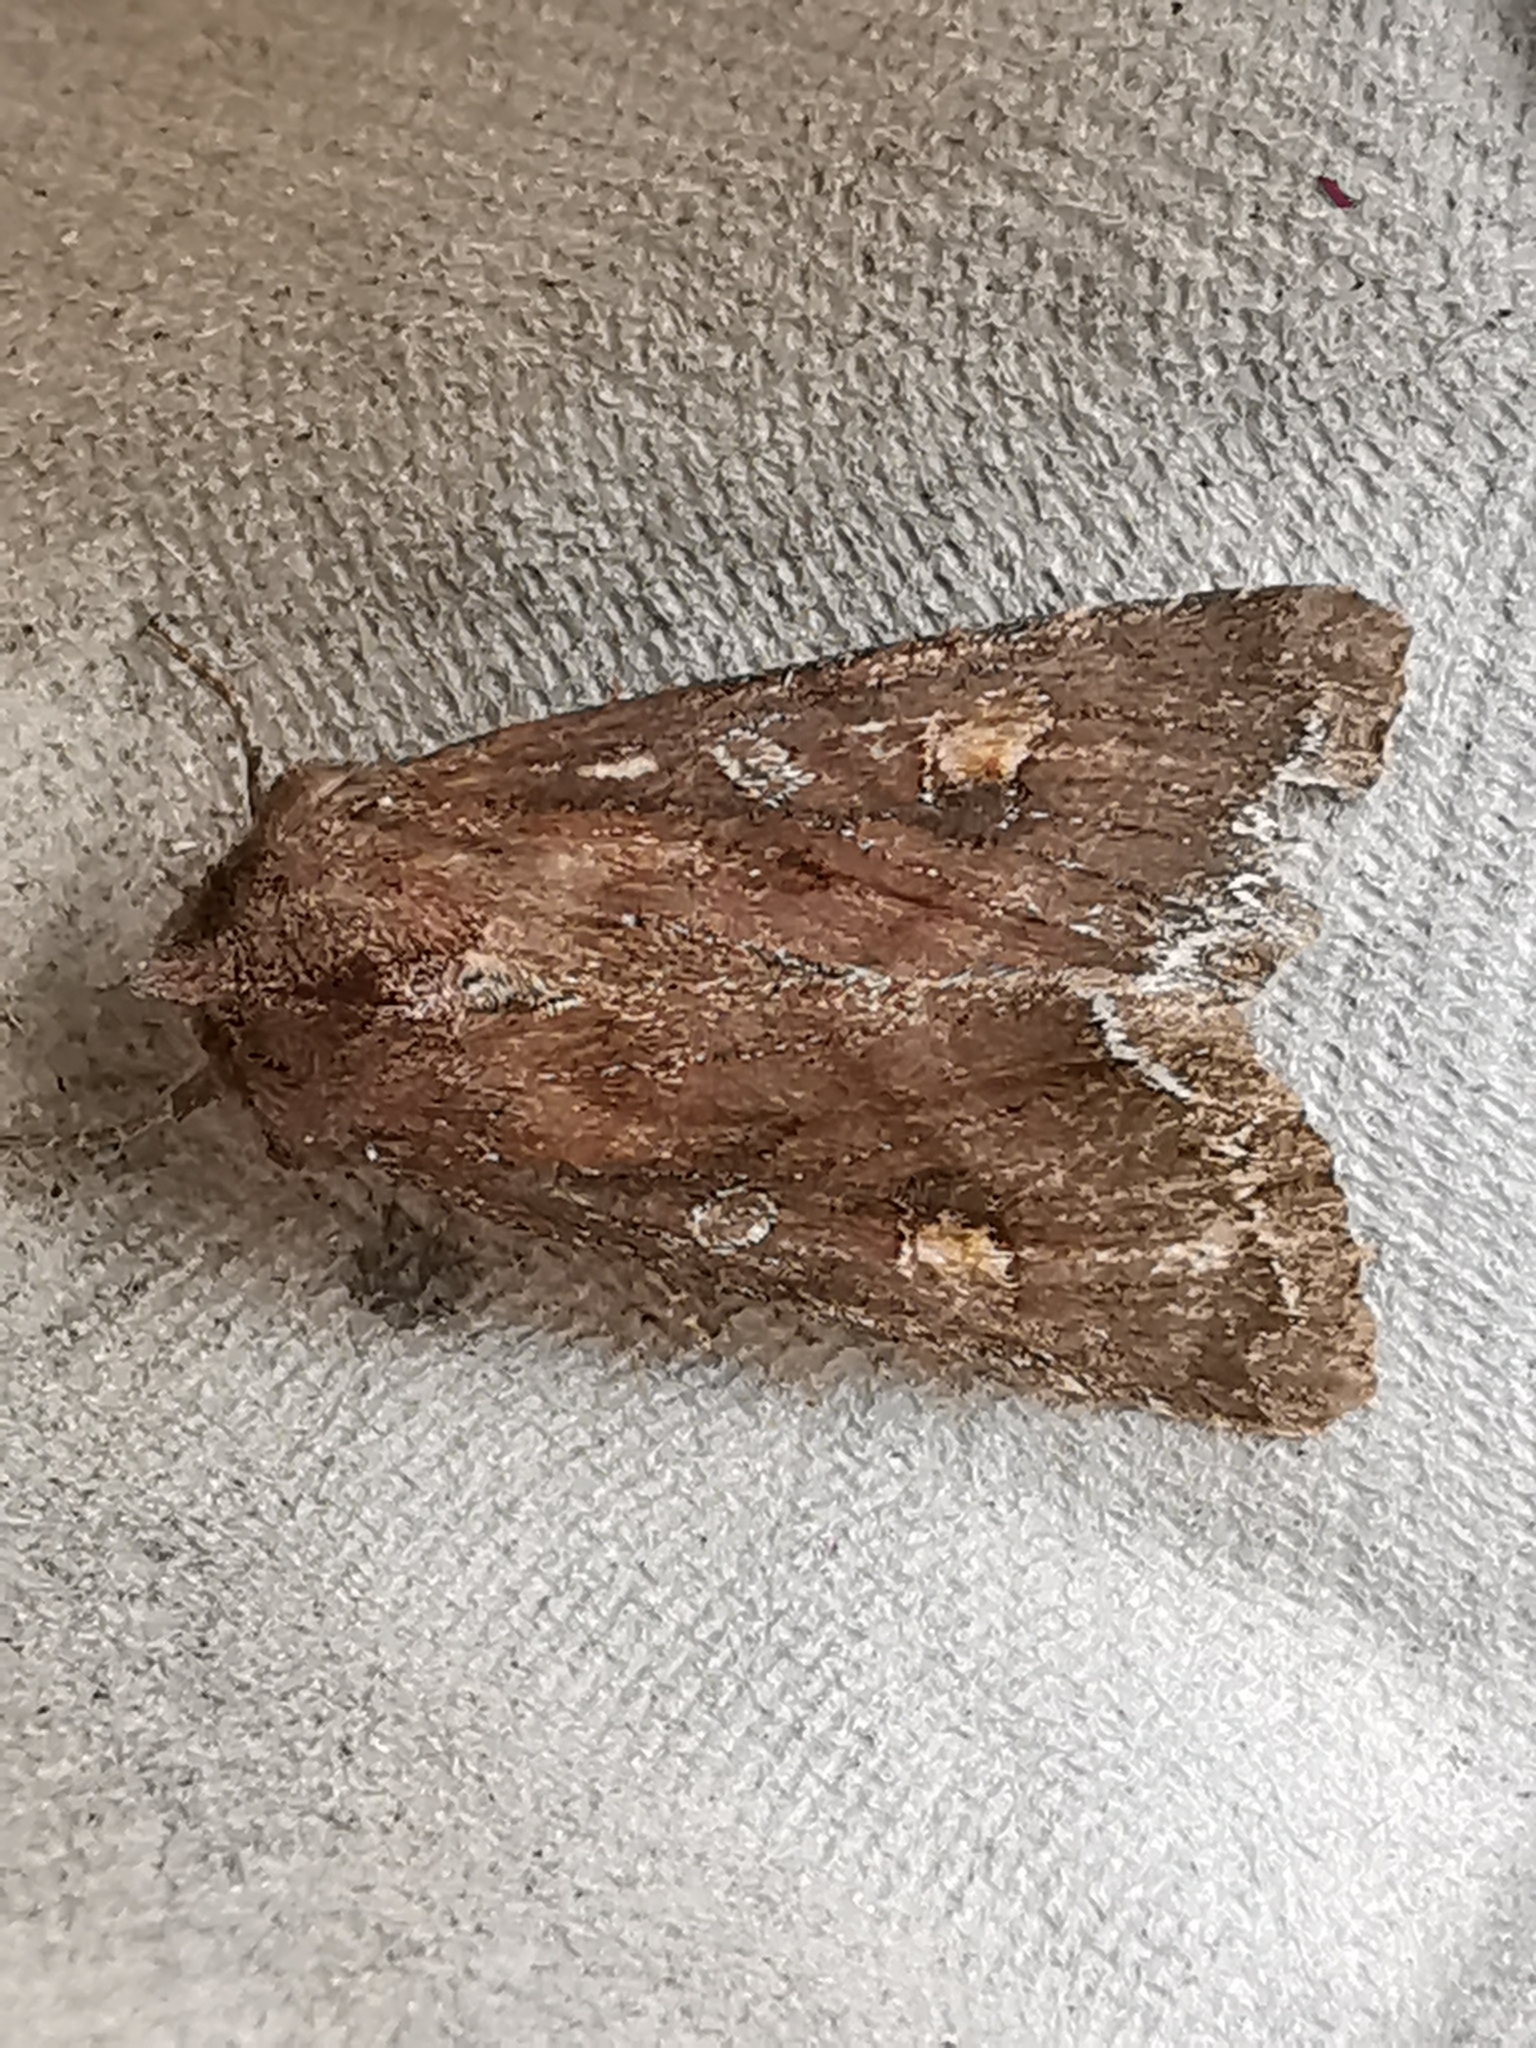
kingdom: Animalia
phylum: Arthropoda
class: Insecta
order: Lepidoptera
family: Noctuidae
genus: Lacanobia
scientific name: Lacanobia oleracea
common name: Bright-line brown-eye
